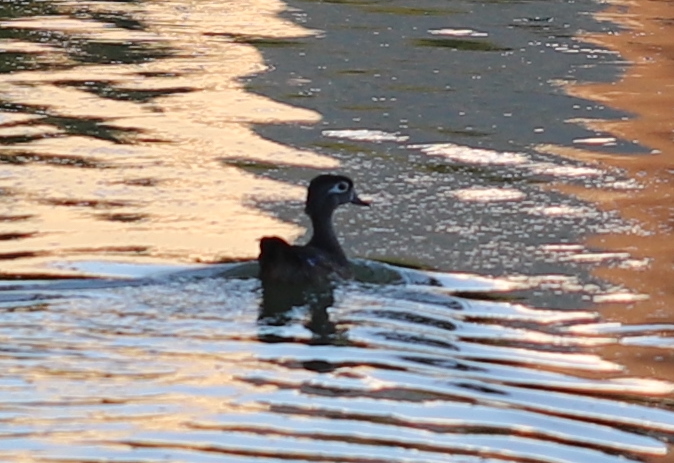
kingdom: Animalia
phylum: Chordata
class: Aves
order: Anseriformes
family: Anatidae
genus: Aix
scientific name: Aix sponsa
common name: Wood duck
